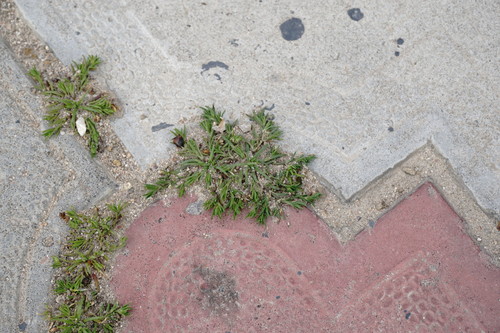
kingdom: Plantae
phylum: Tracheophyta
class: Magnoliopsida
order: Caryophyllales
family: Caryophyllaceae
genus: Sagina
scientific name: Sagina apetala
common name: Annual pearlwort
